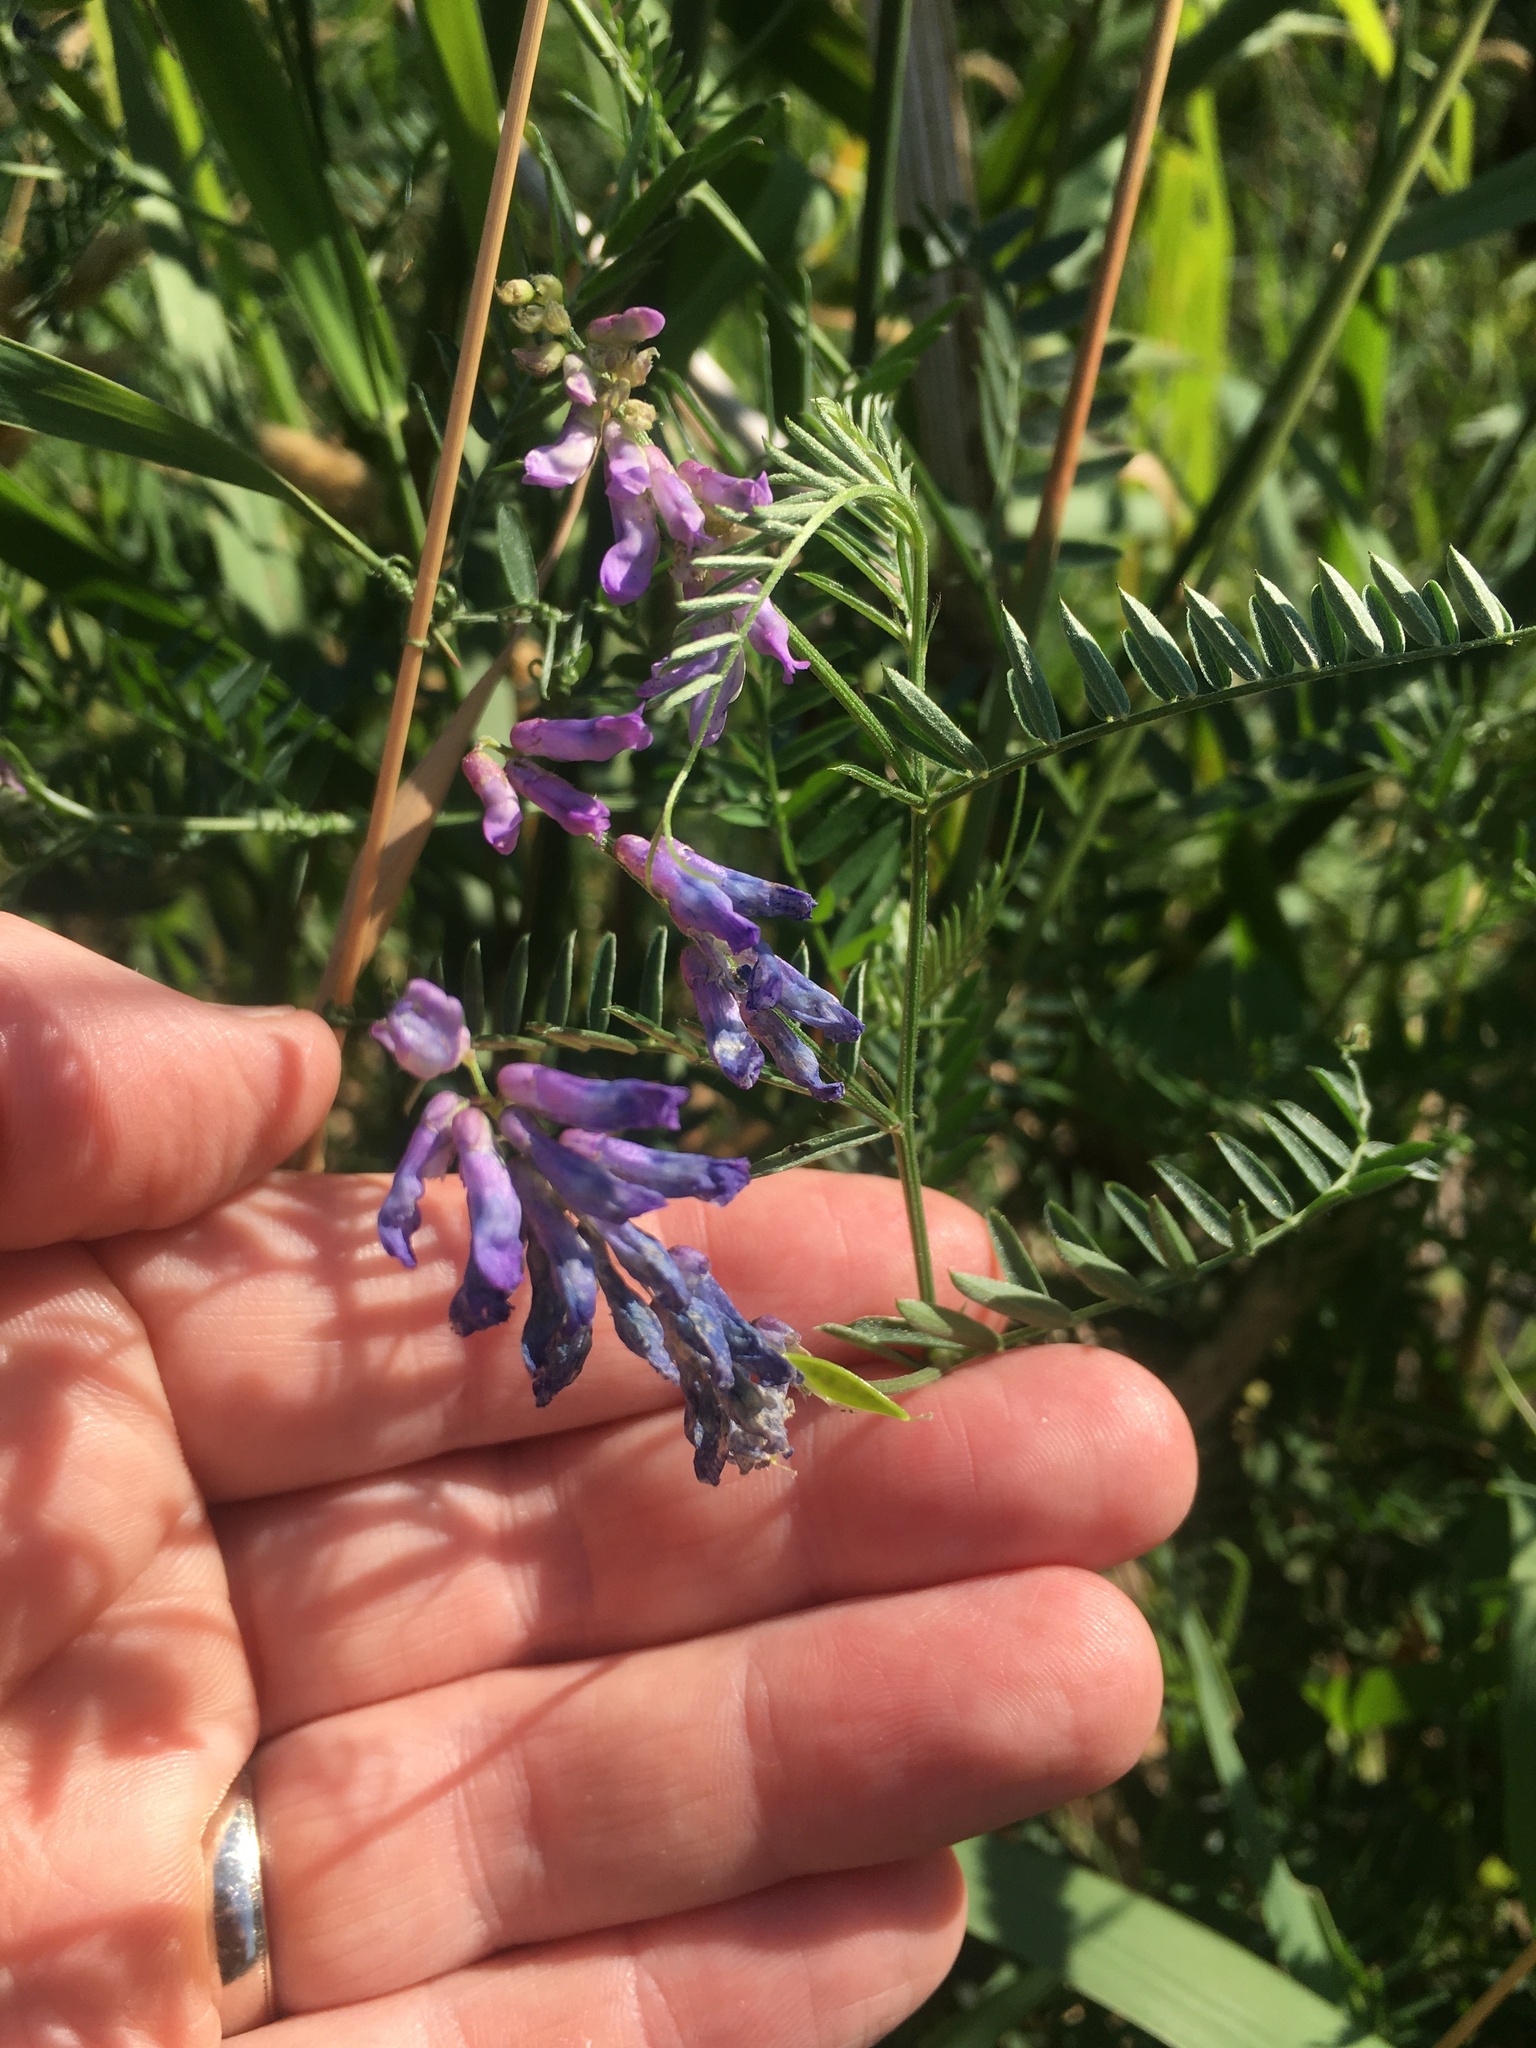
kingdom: Plantae
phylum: Tracheophyta
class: Magnoliopsida
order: Fabales
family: Fabaceae
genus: Vicia
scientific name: Vicia cracca
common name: Bird vetch
